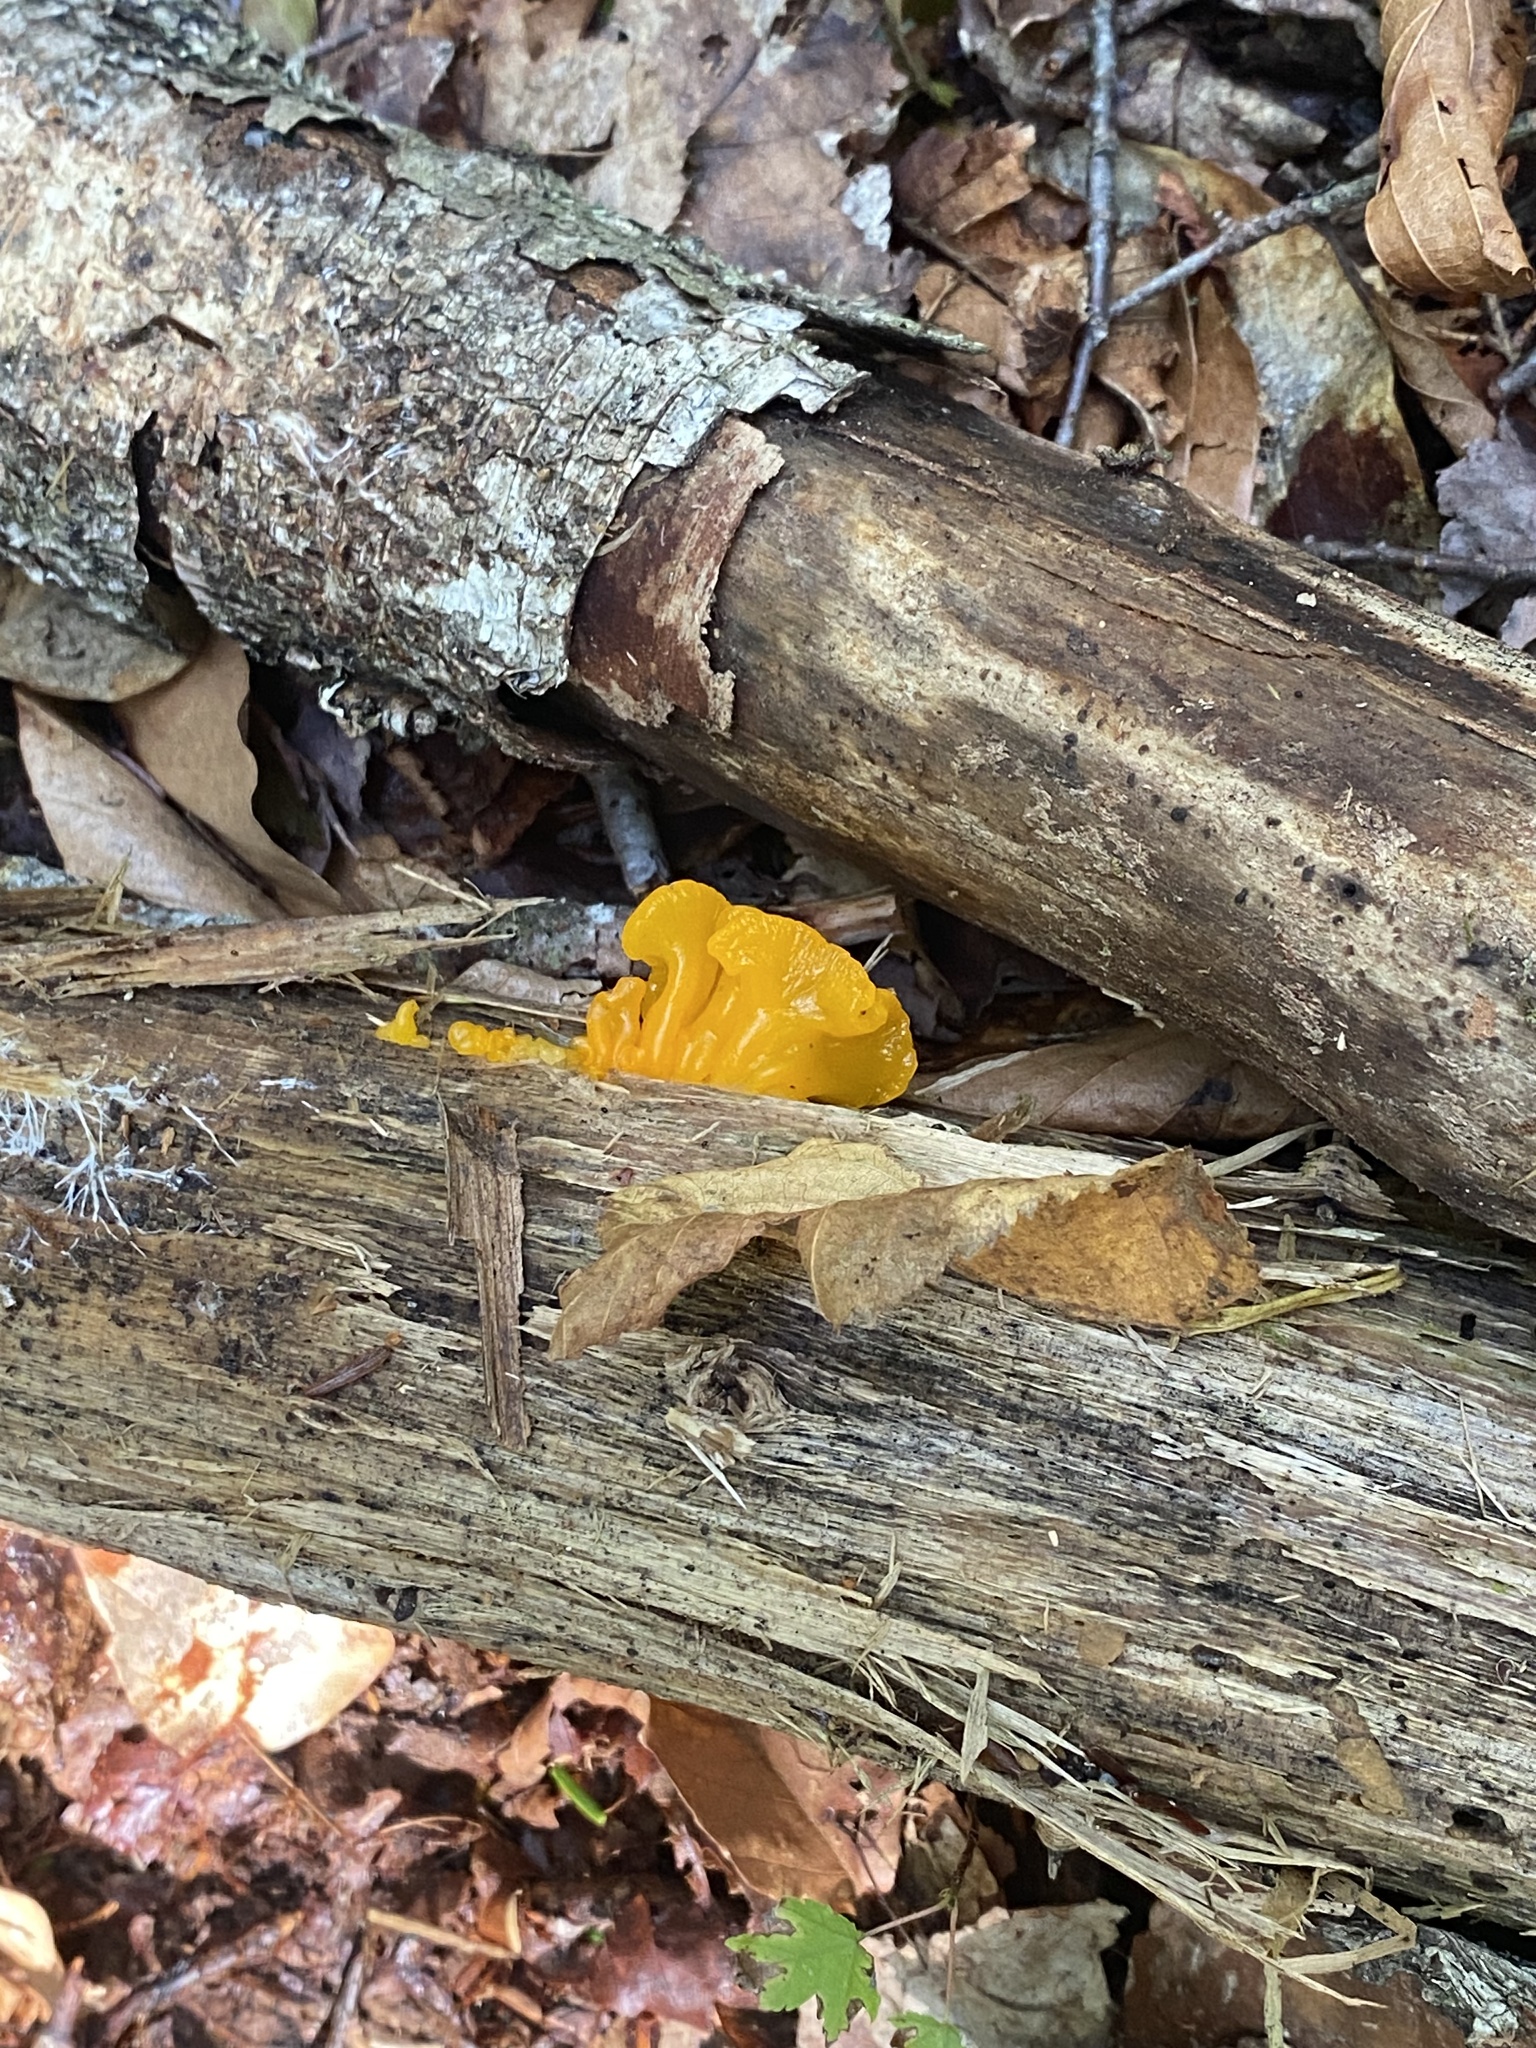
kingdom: Fungi
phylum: Basidiomycota
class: Dacrymycetes
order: Dacrymycetales
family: Dacrymycetaceae
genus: Dacrymyces
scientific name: Dacrymyces chrysospermus
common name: Orange jelly spot
